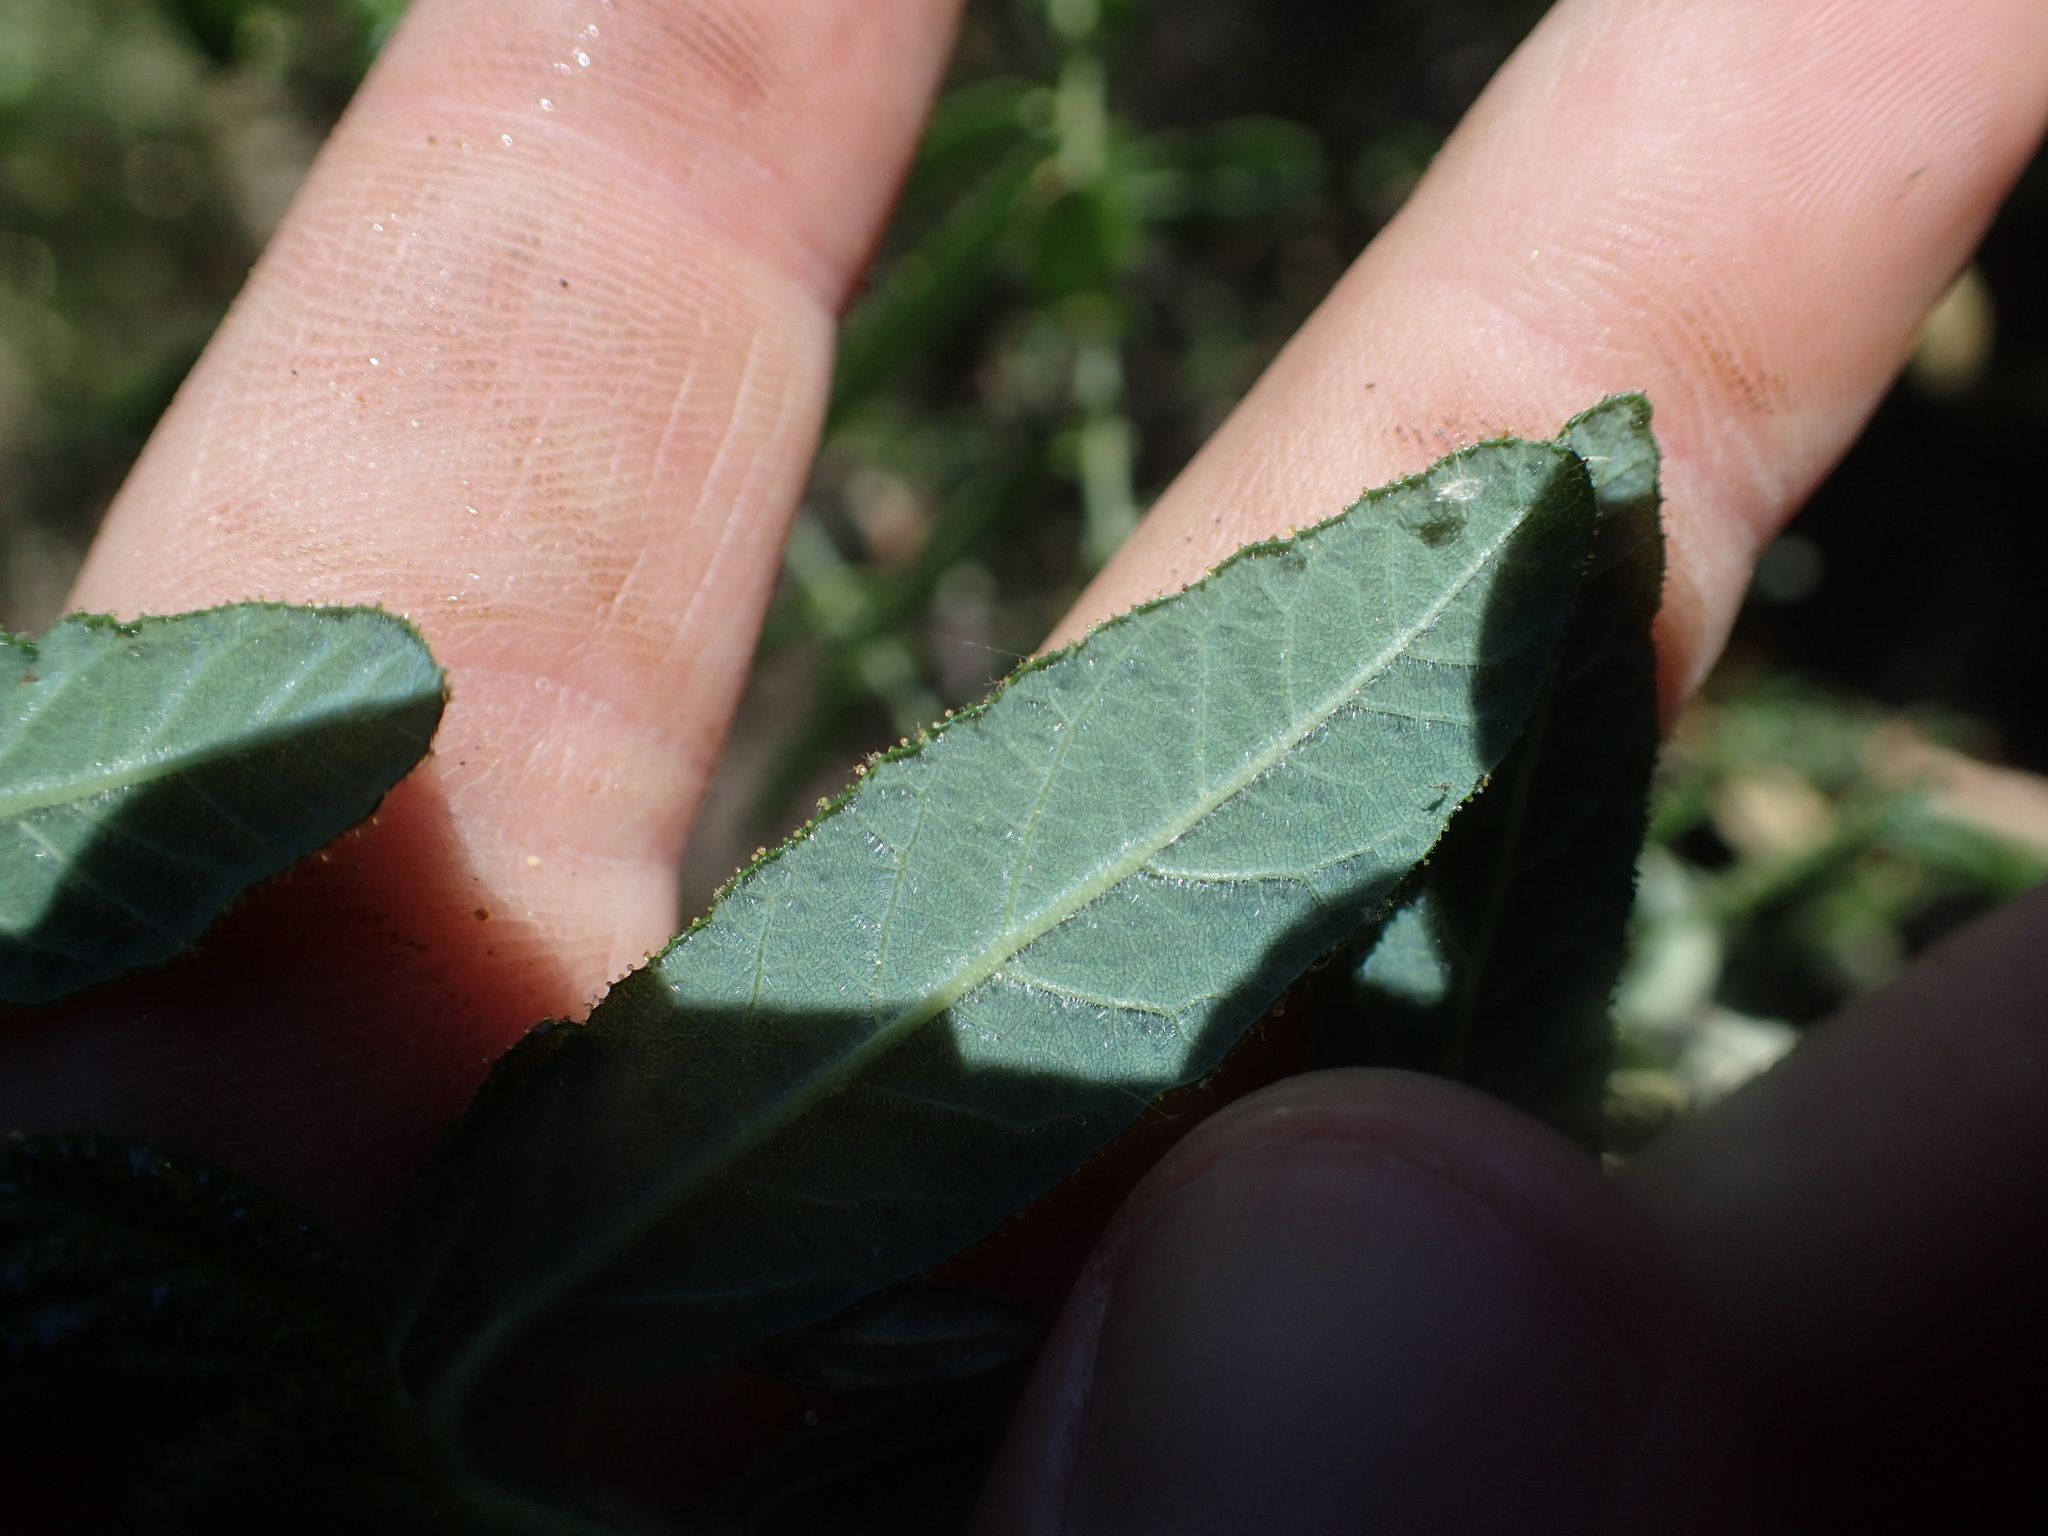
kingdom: Plantae
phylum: Tracheophyta
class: Magnoliopsida
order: Rosales
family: Rhamnaceae
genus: Ceanothus
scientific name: Ceanothus papillosus
